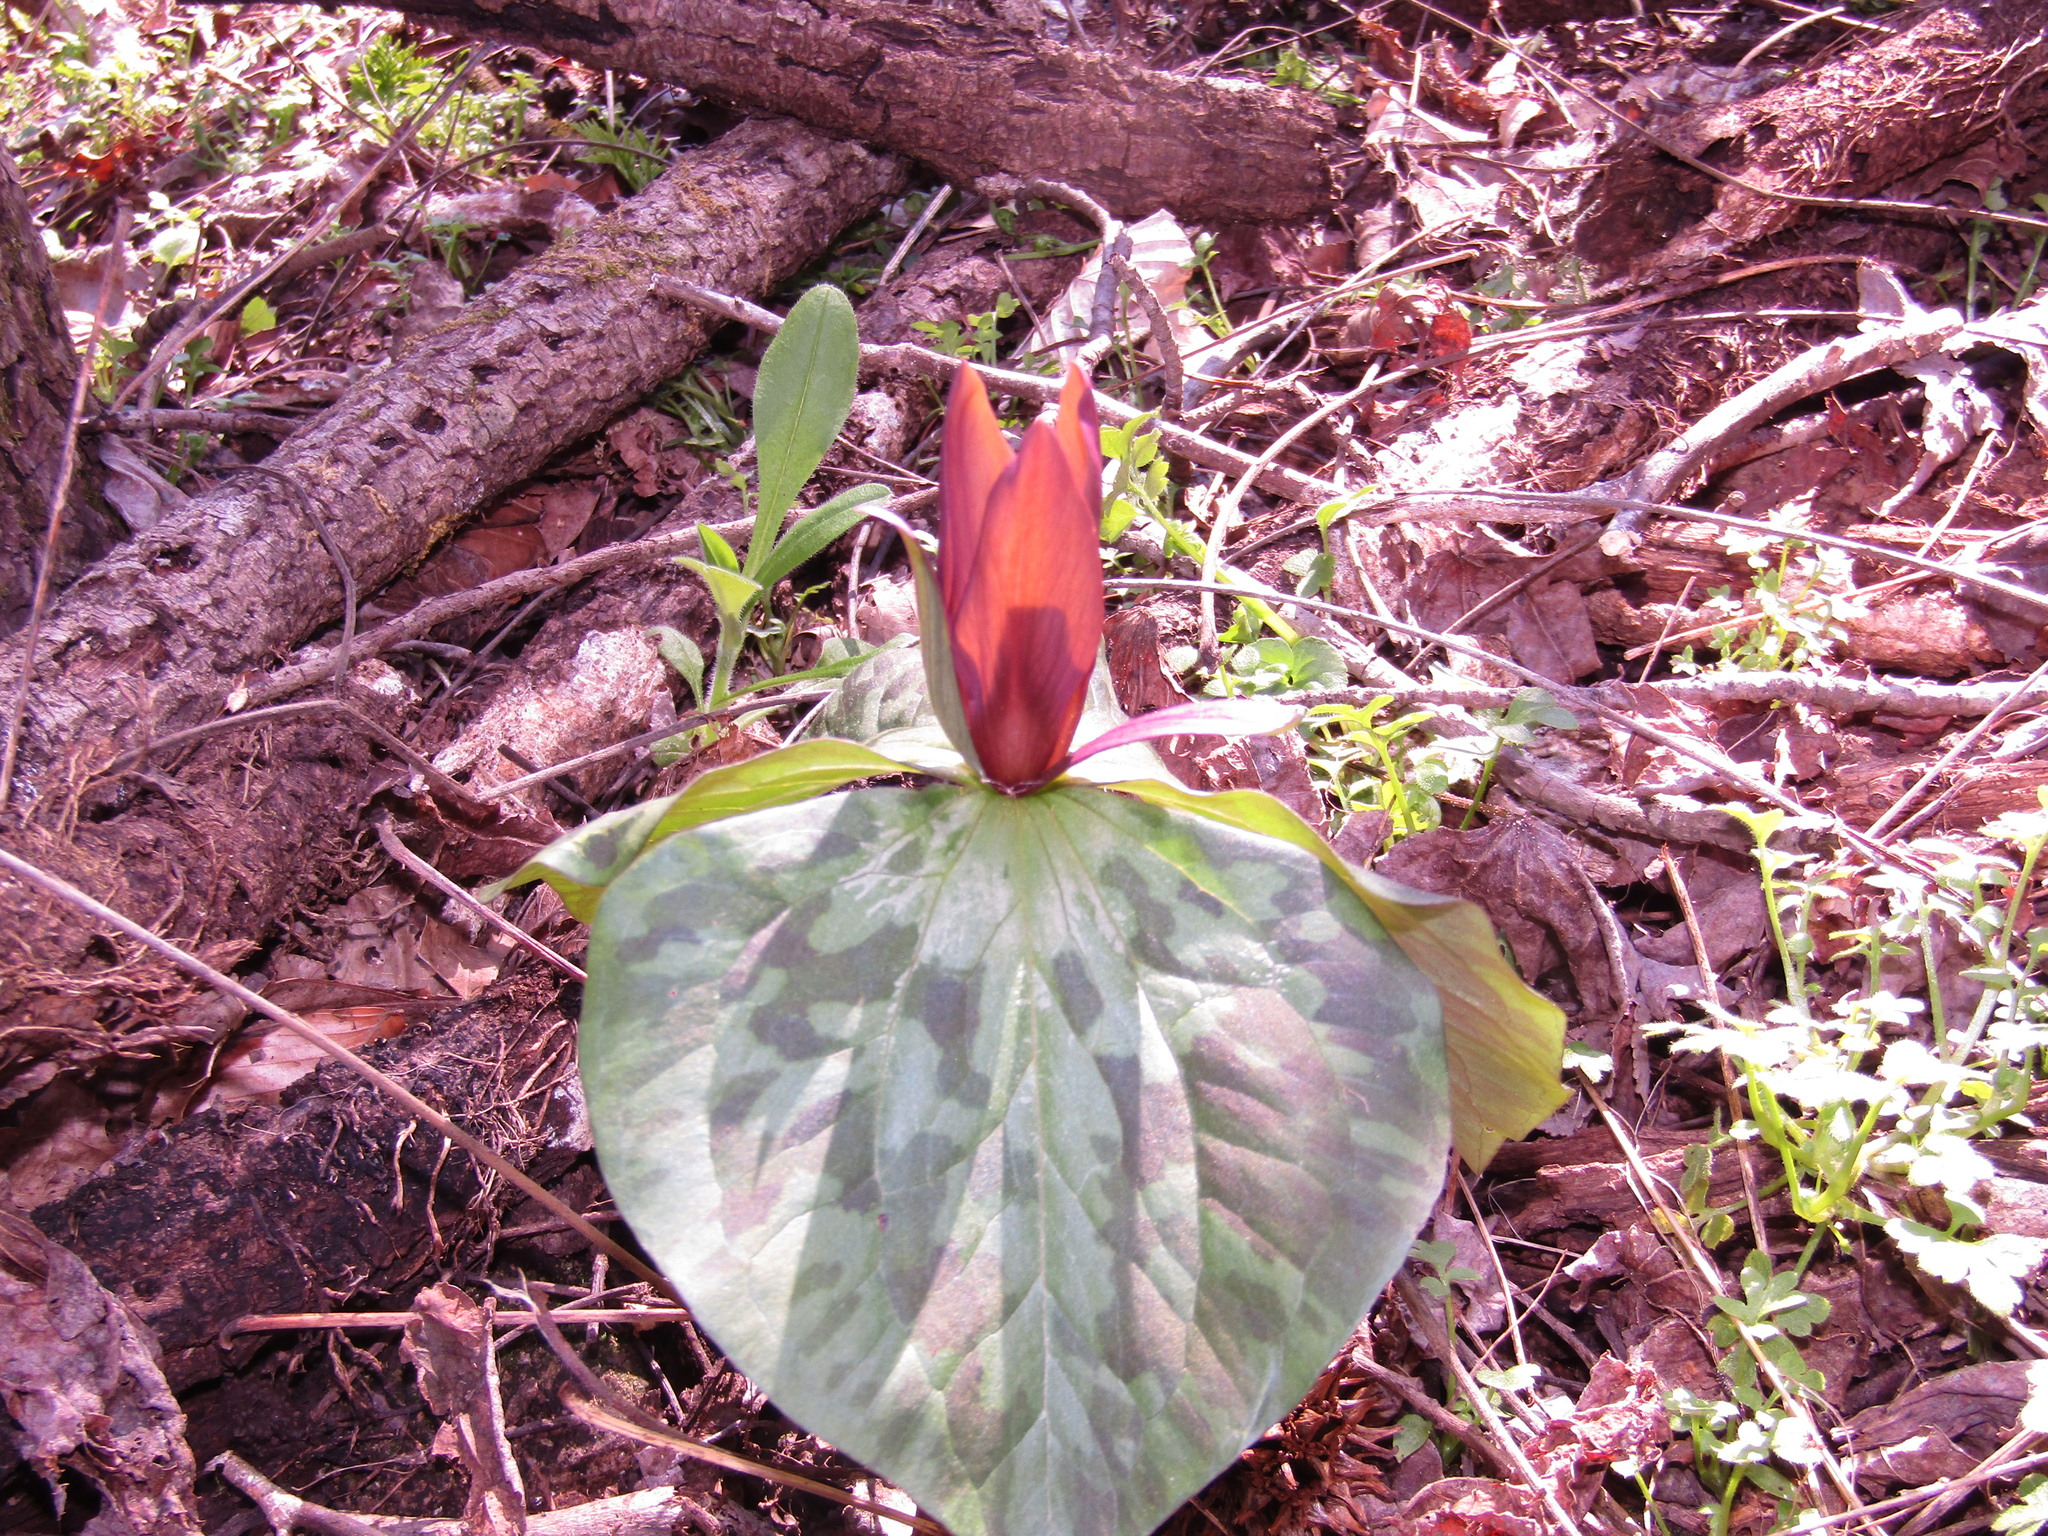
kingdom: Plantae
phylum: Tracheophyta
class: Liliopsida
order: Liliales
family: Melanthiaceae
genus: Trillium
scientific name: Trillium cuneatum
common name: Cuneate trillium
